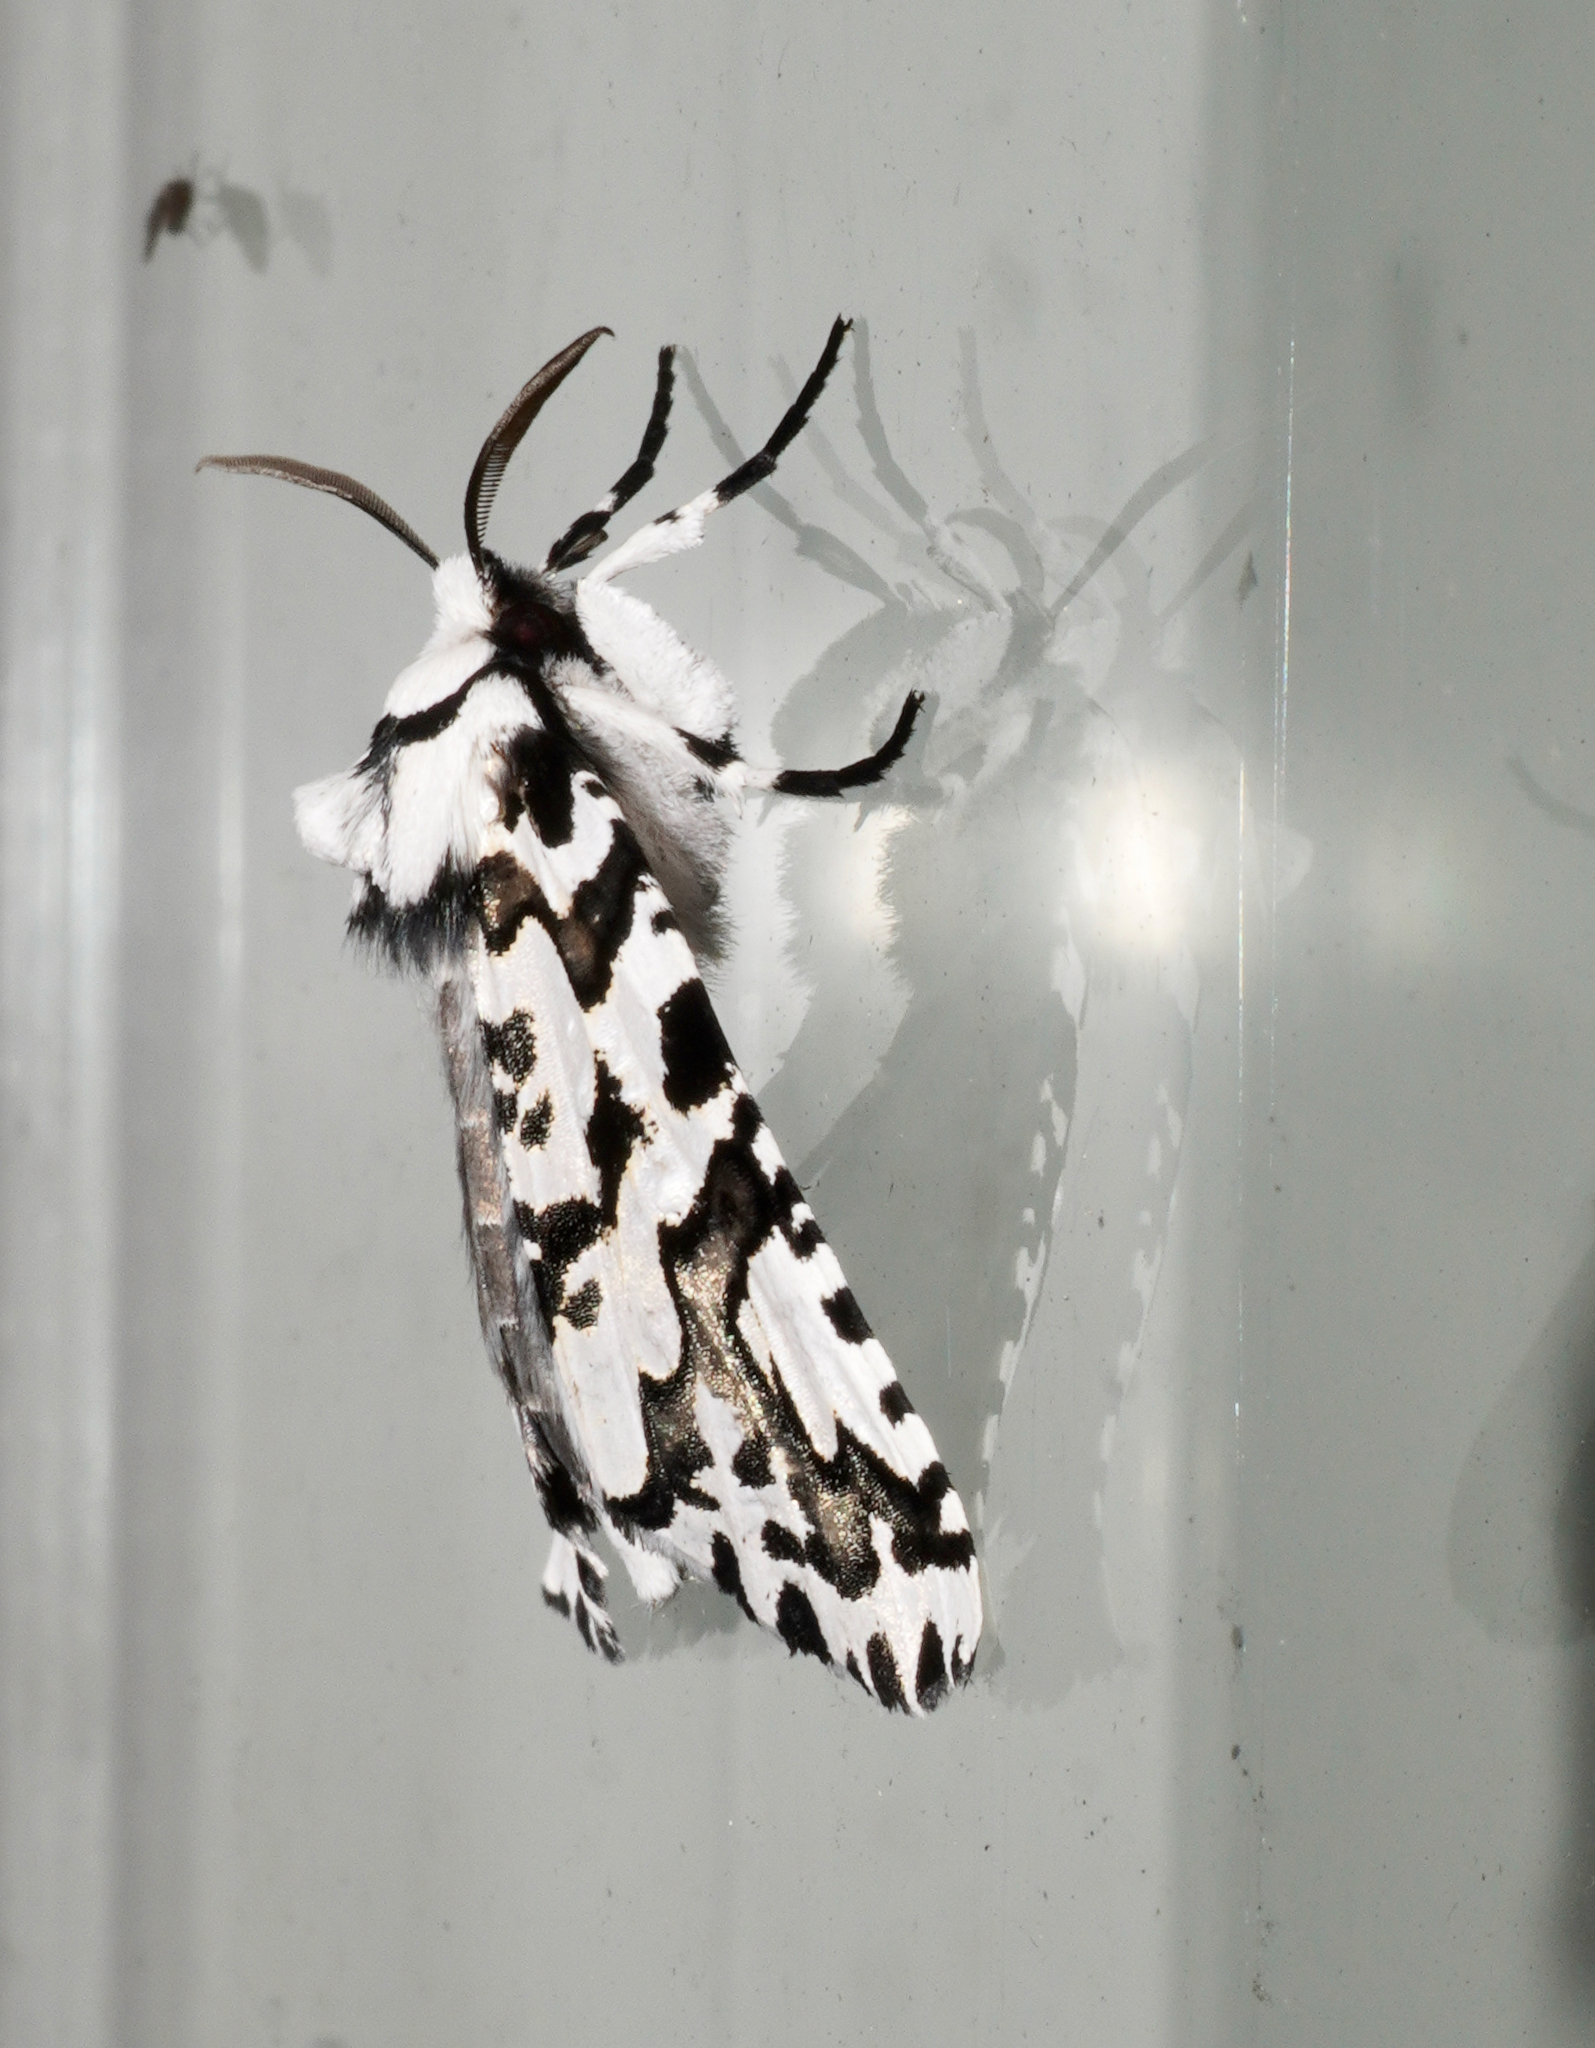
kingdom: Animalia
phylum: Arthropoda
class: Insecta
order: Lepidoptera
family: Geometridae
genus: Declana
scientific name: Declana
